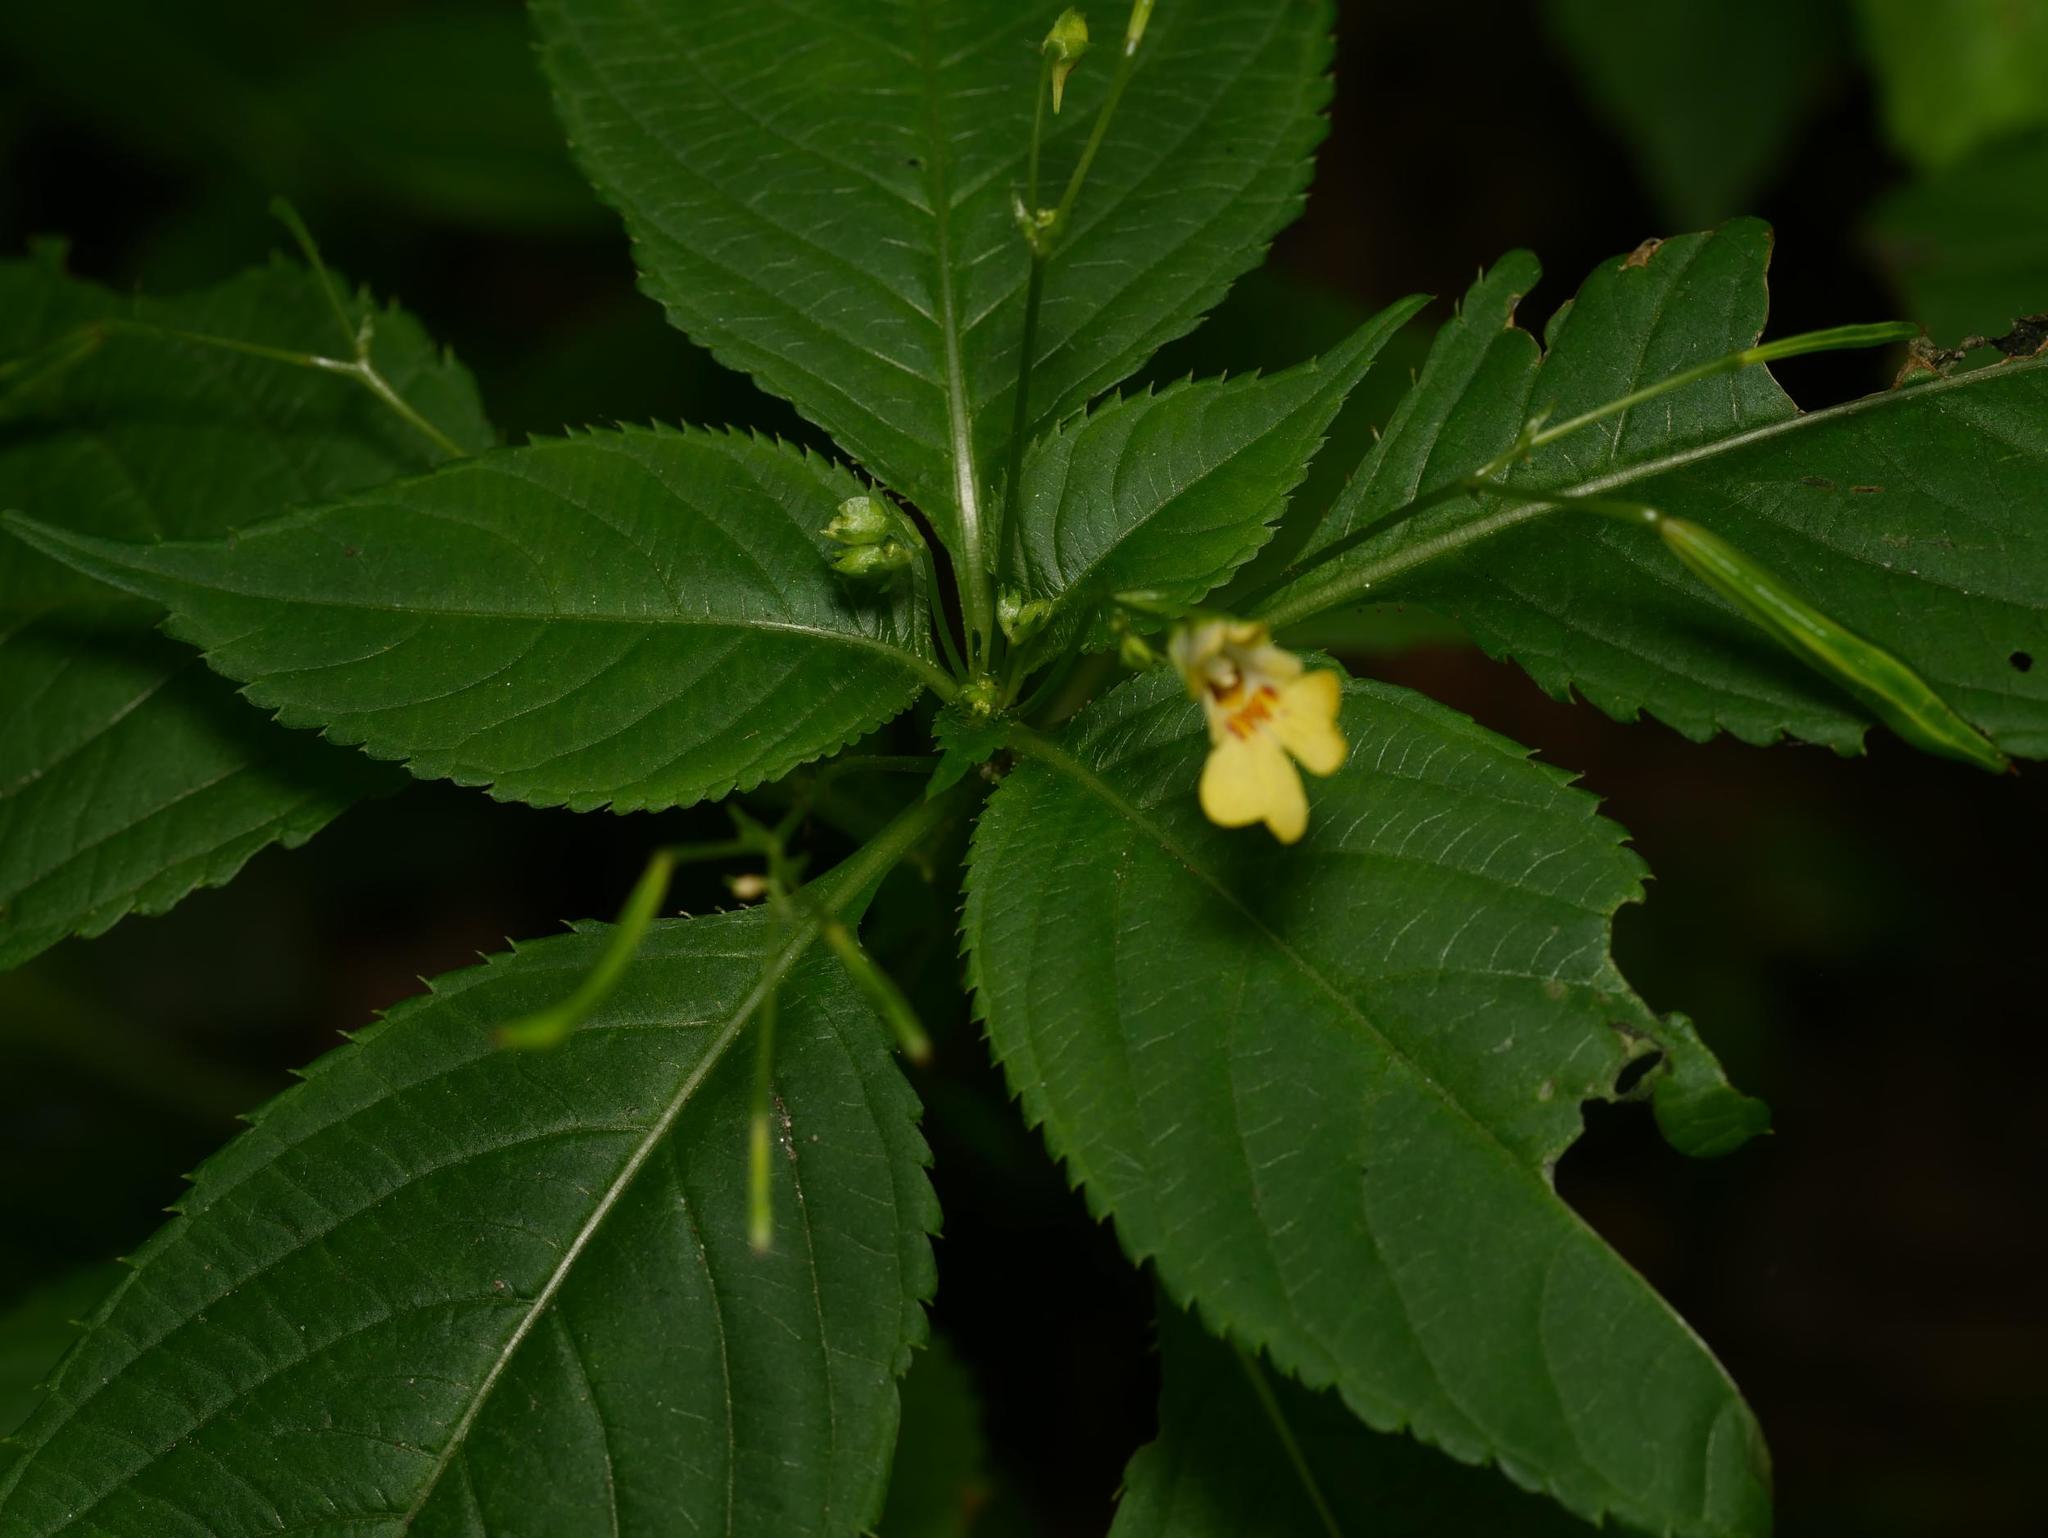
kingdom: Plantae
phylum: Tracheophyta
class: Magnoliopsida
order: Ericales
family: Balsaminaceae
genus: Impatiens
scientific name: Impatiens parviflora
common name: Small balsam
